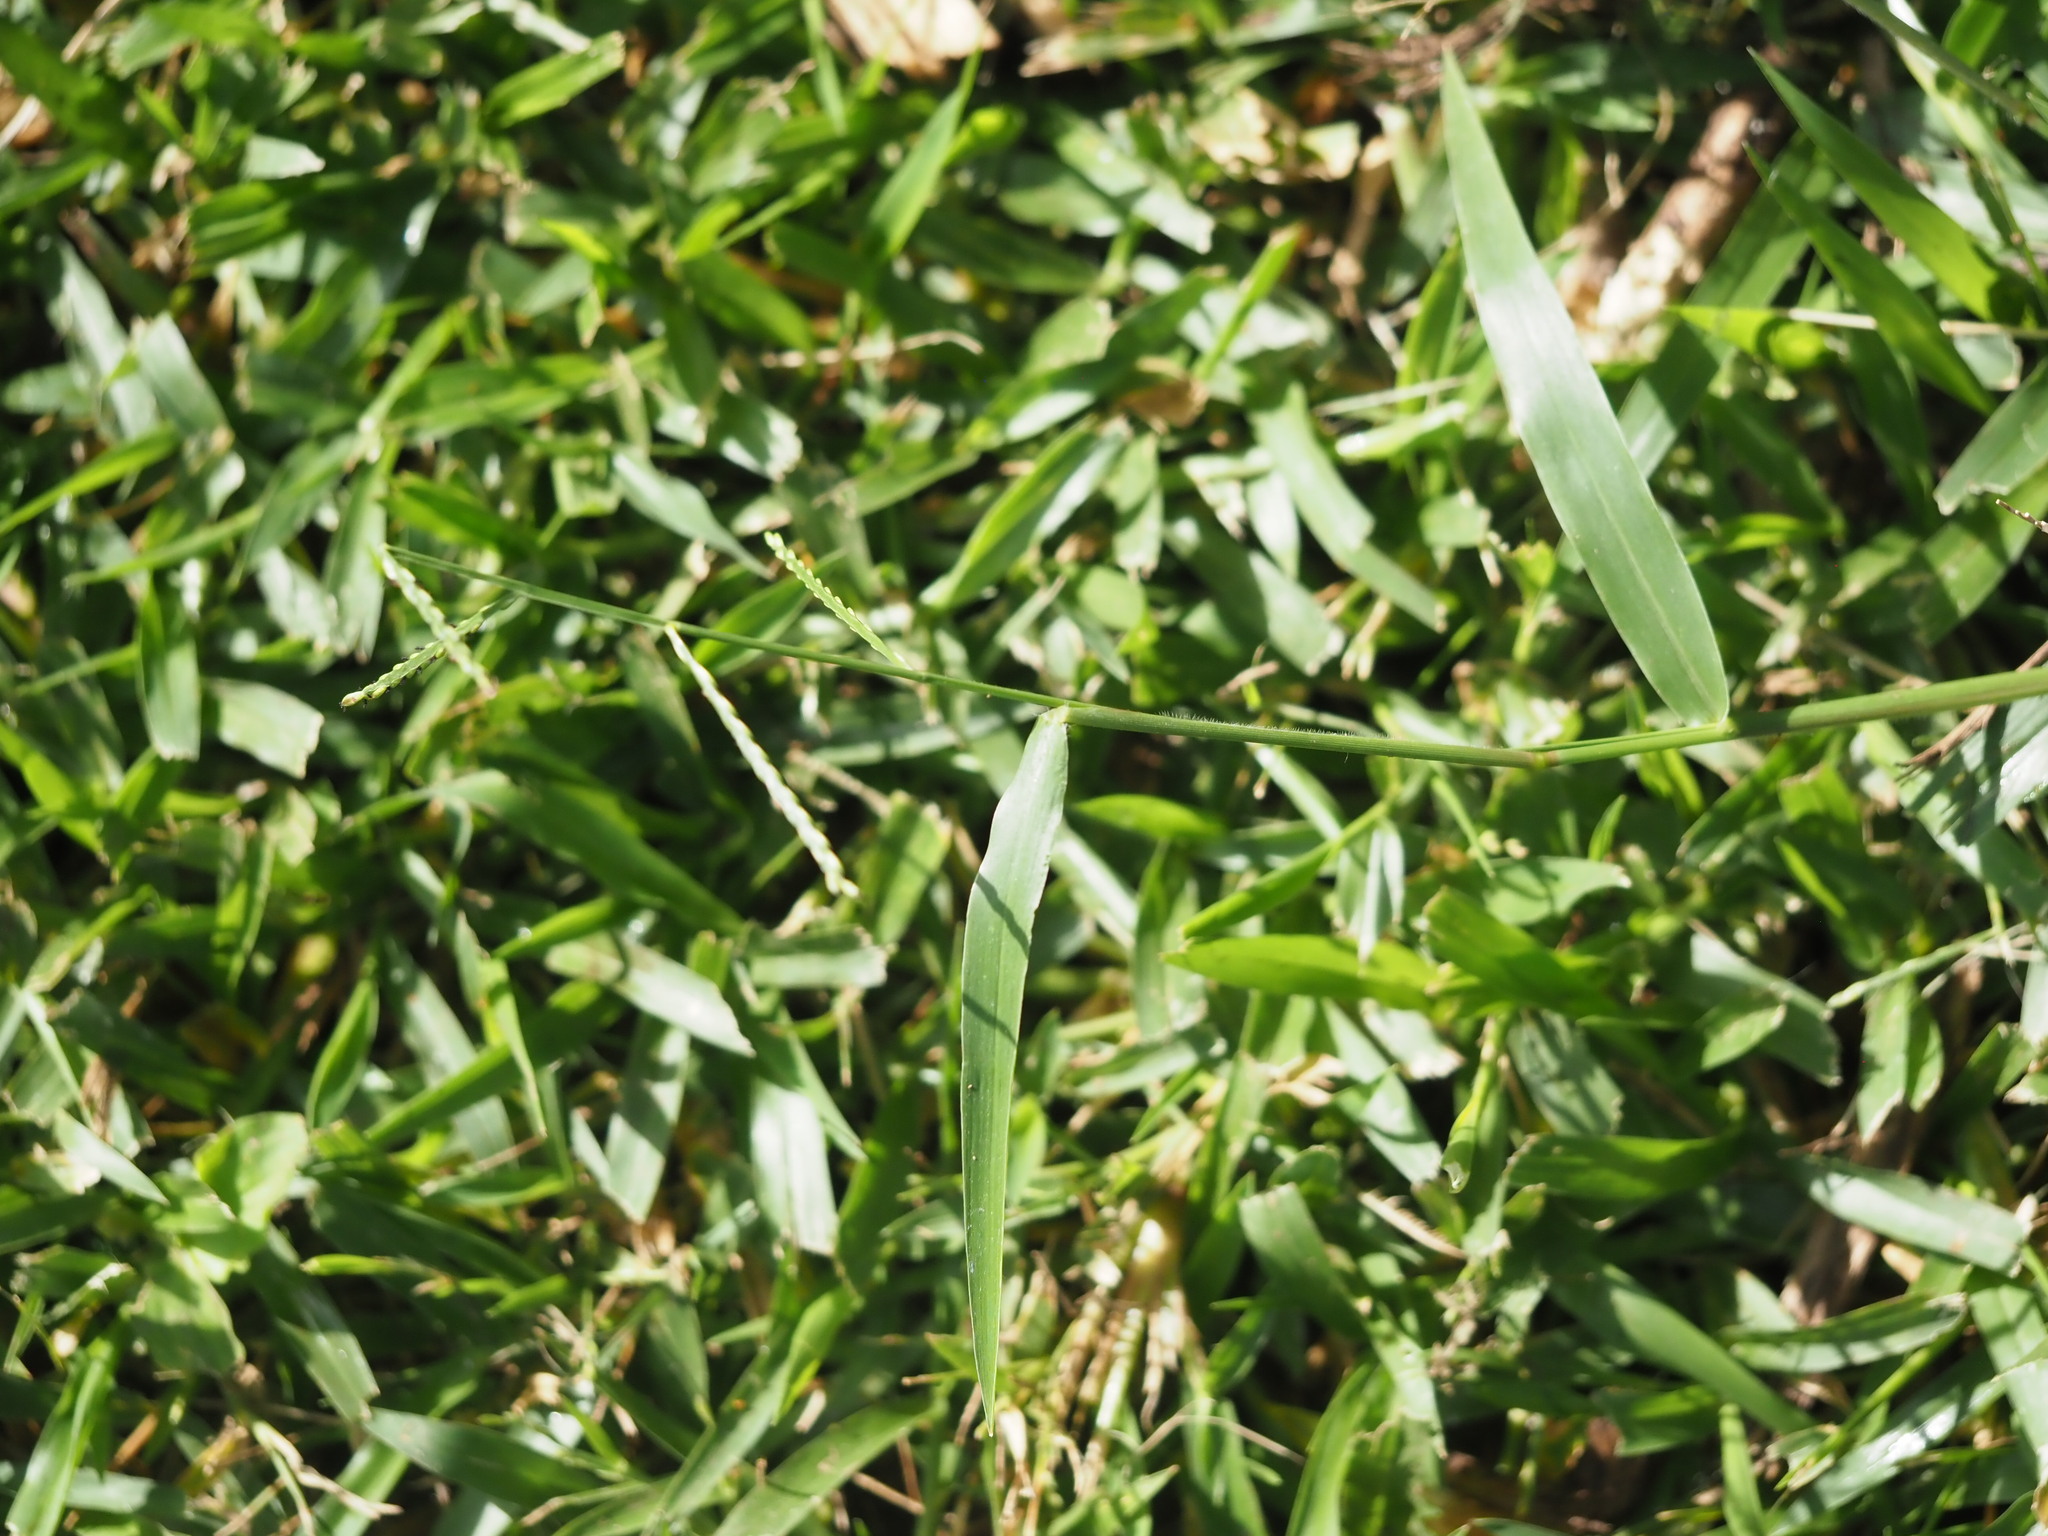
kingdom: Plantae
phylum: Tracheophyta
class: Liliopsida
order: Poales
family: Poaceae
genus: Urochloa
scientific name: Urochloa distachyos
